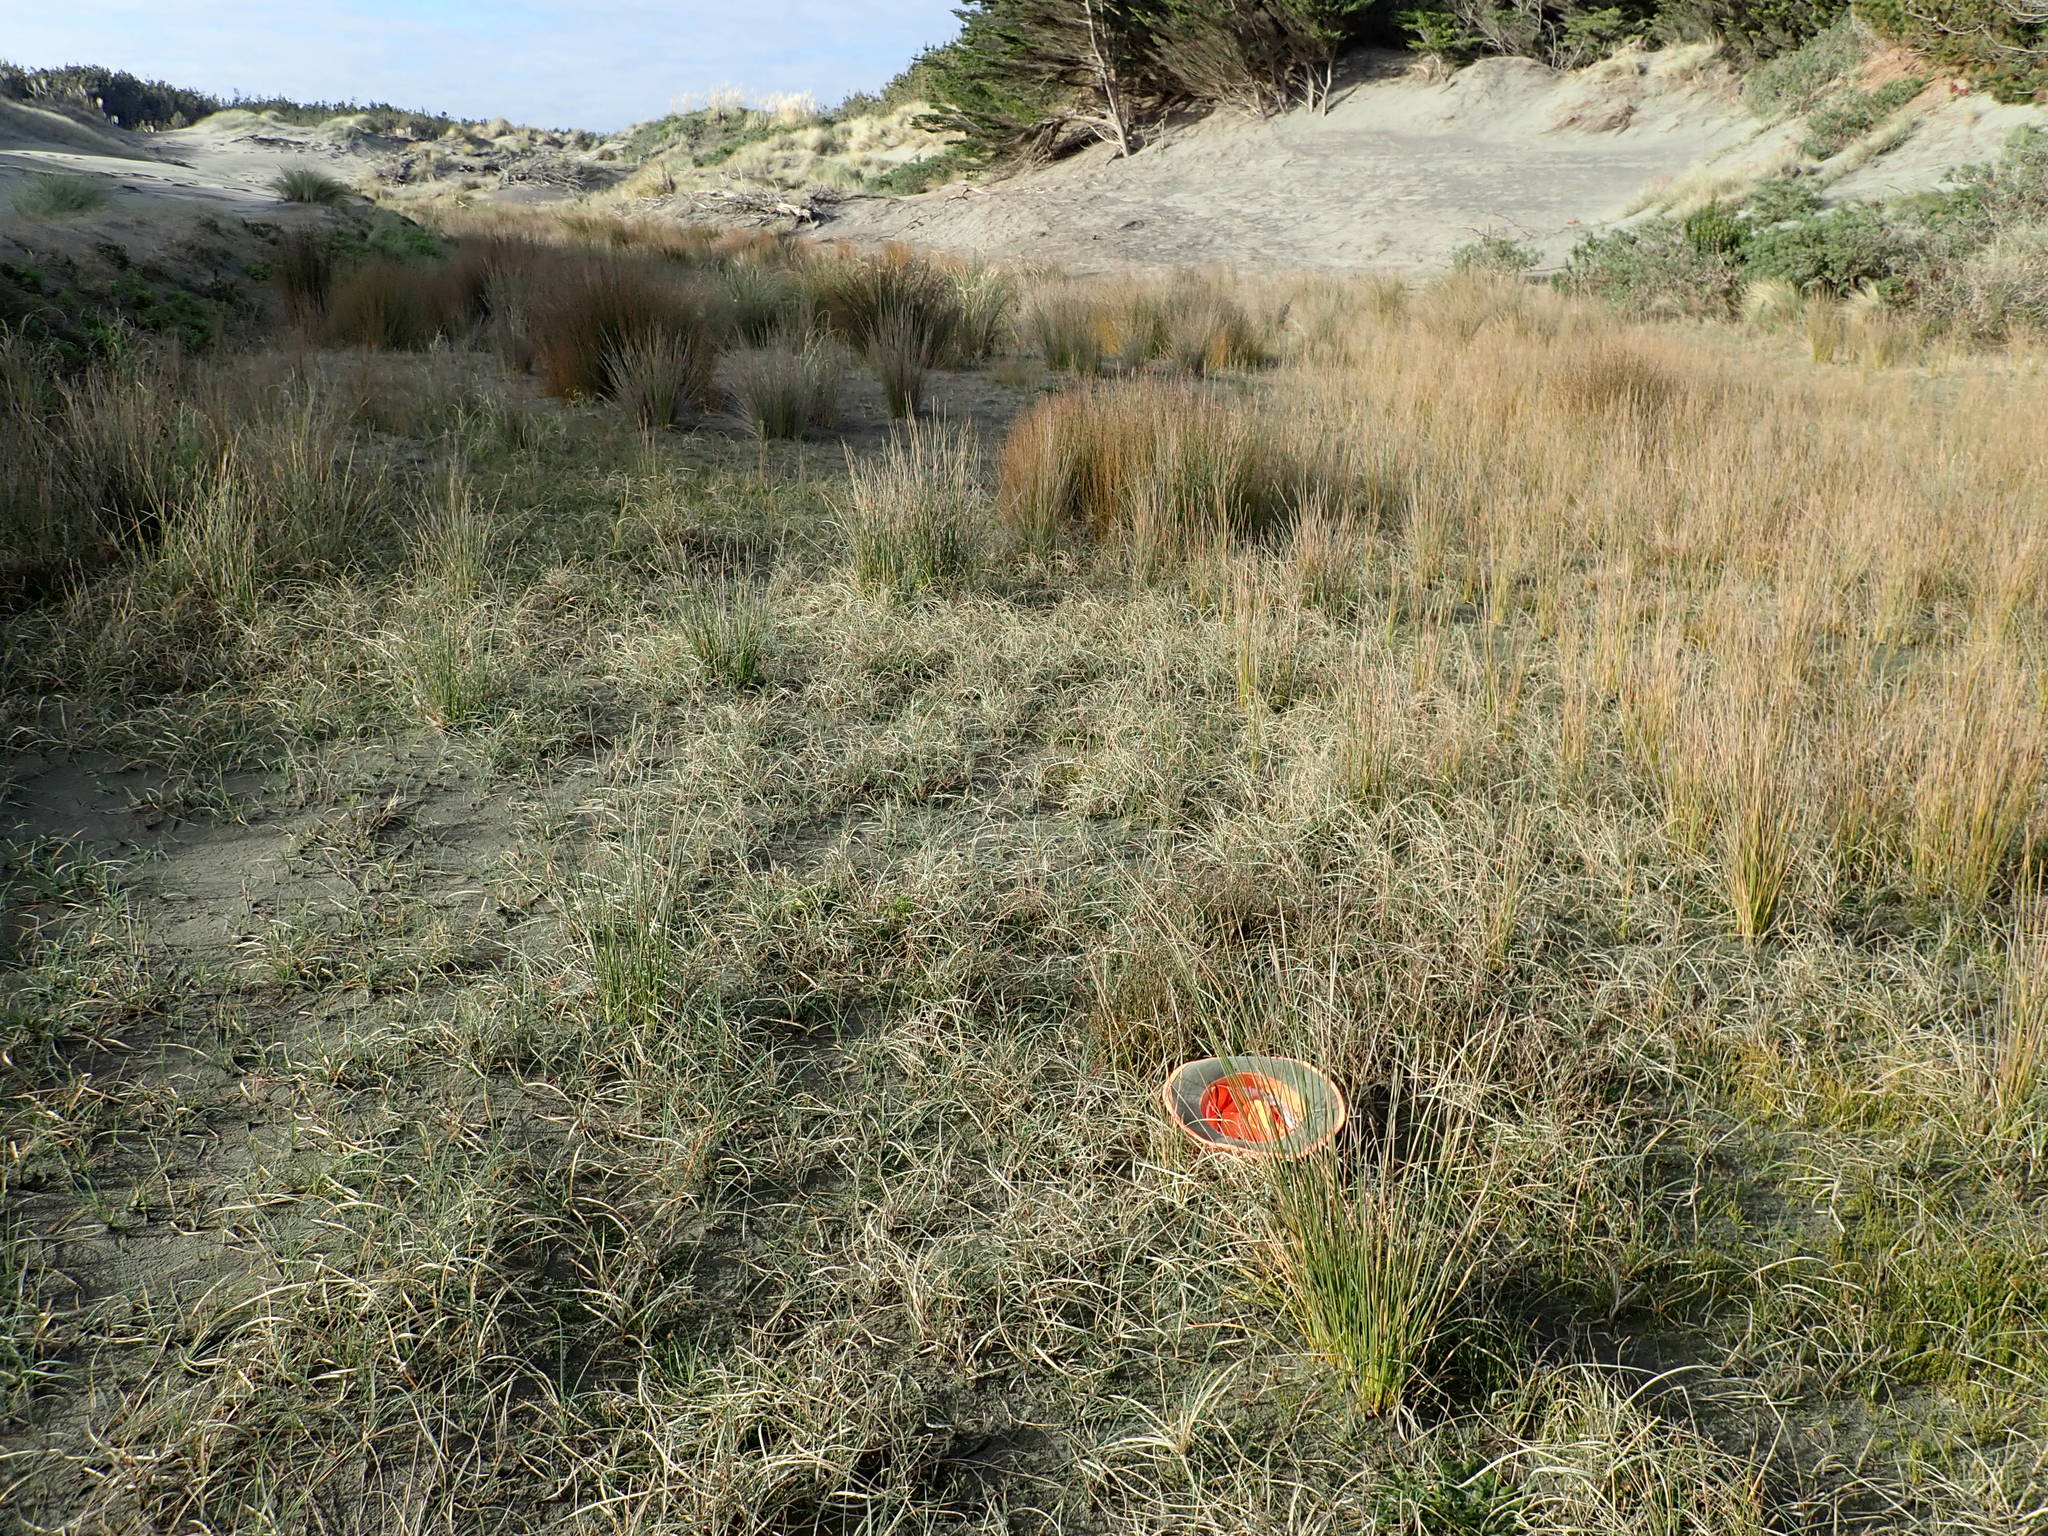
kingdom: Plantae
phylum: Tracheophyta
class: Liliopsida
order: Poales
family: Juncaceae
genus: Juncus
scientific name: Juncus articulatus
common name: Jointed rush
